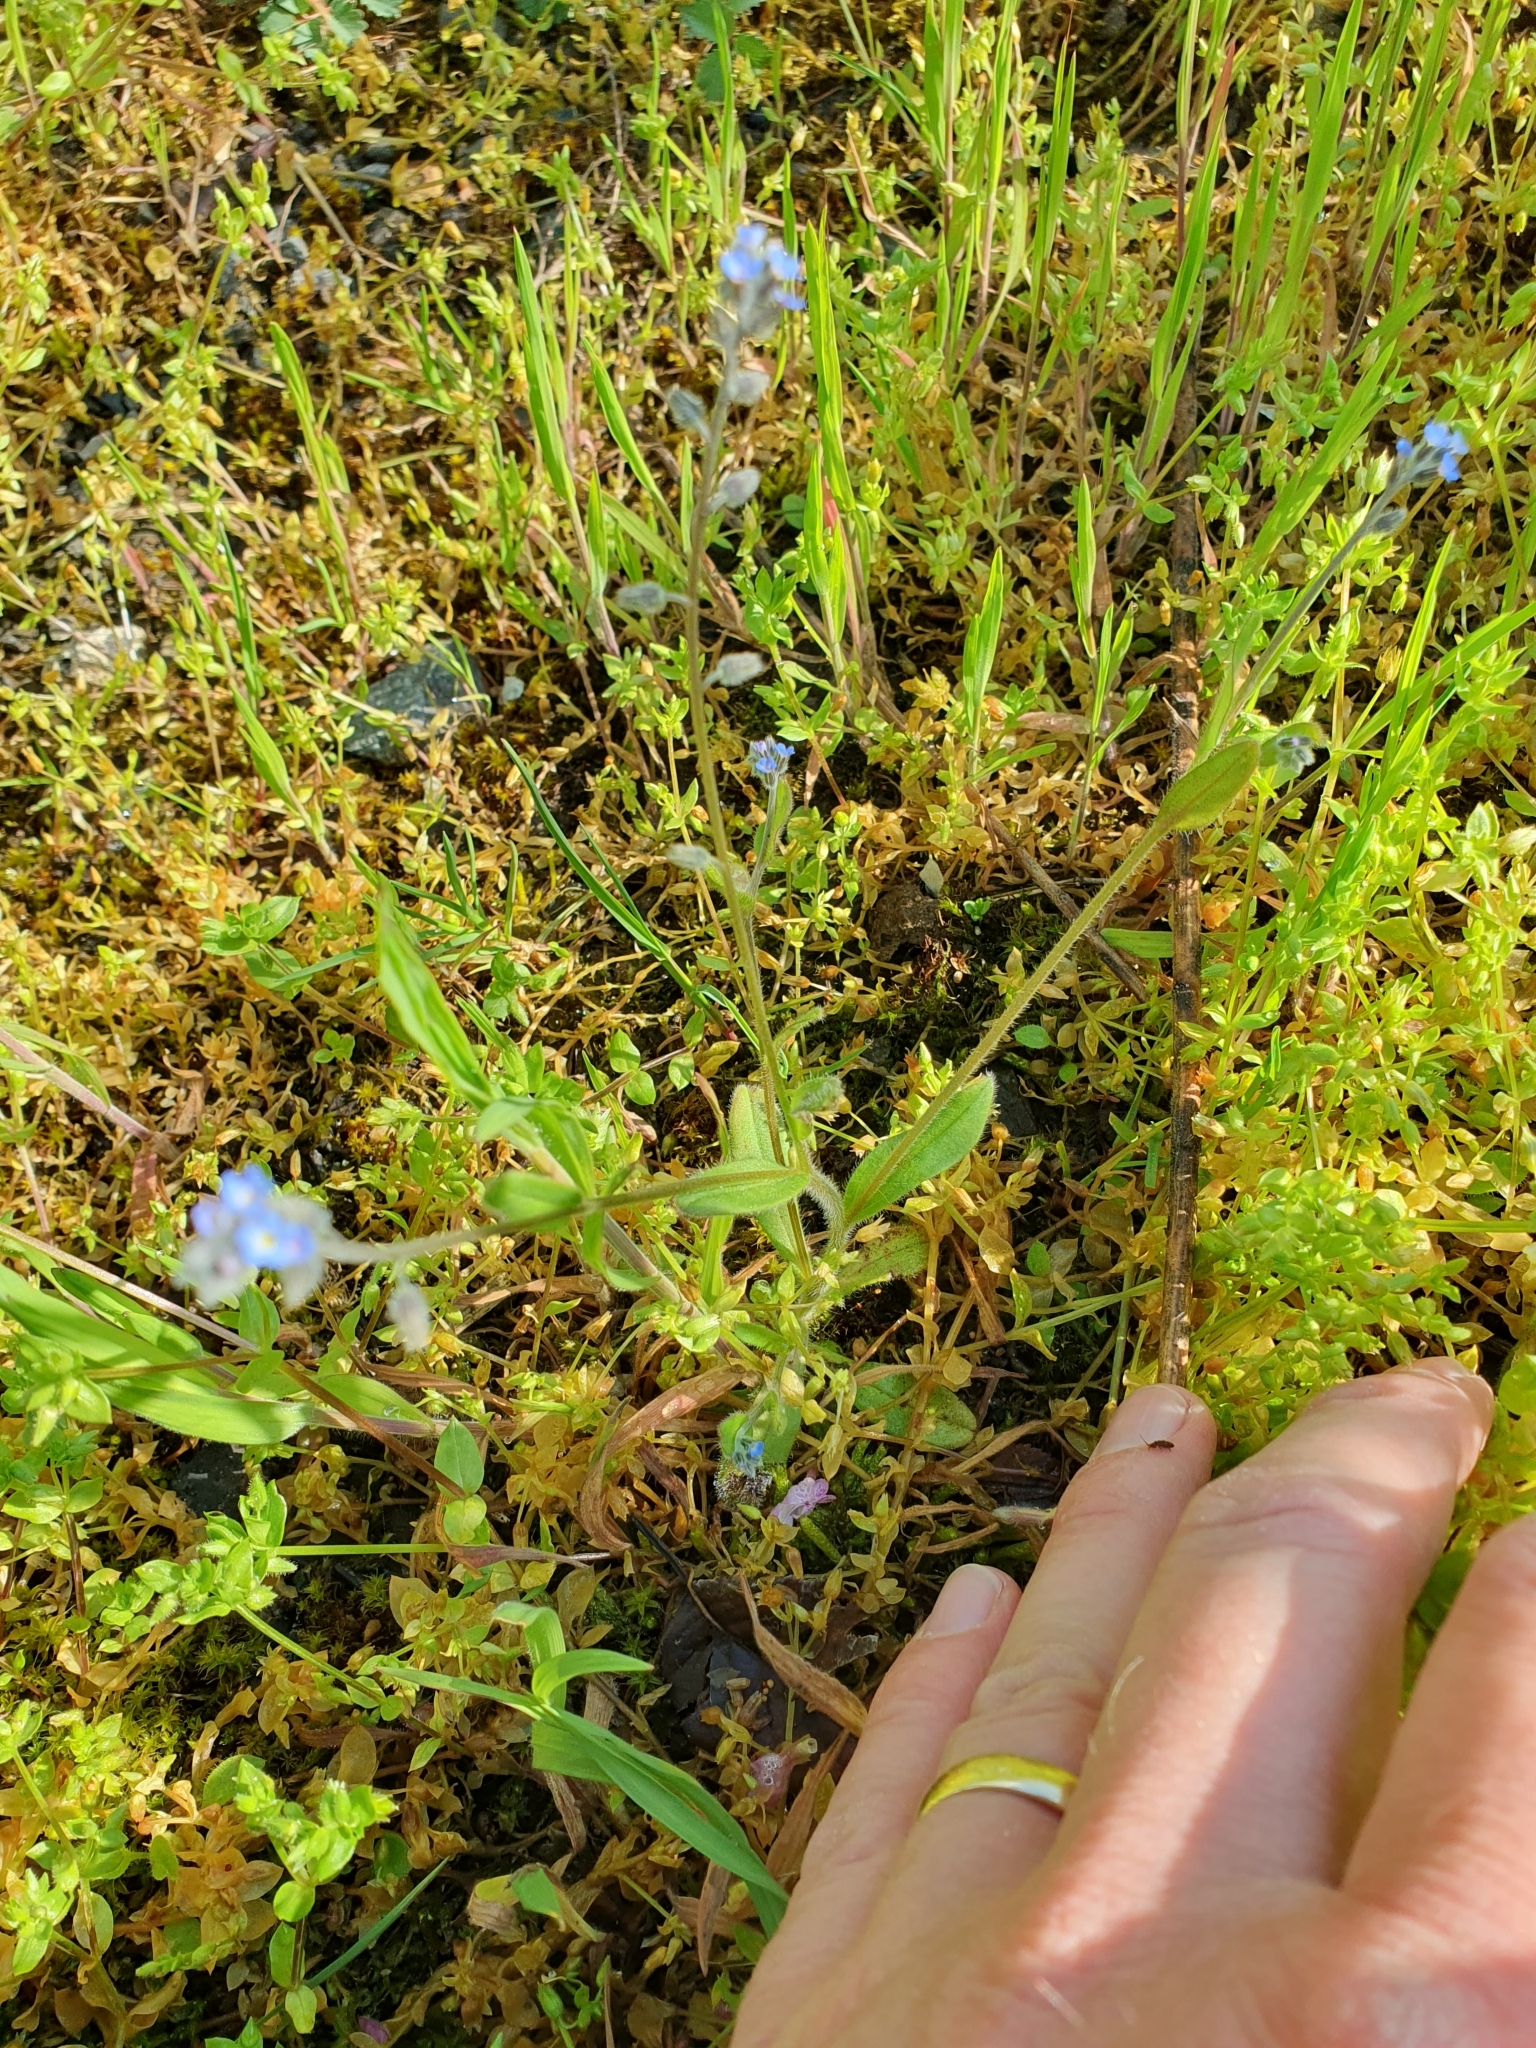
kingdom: Plantae
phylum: Tracheophyta
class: Magnoliopsida
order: Boraginales
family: Boraginaceae
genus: Myosotis
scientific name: Myosotis ramosissima
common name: Early forget-me-not
